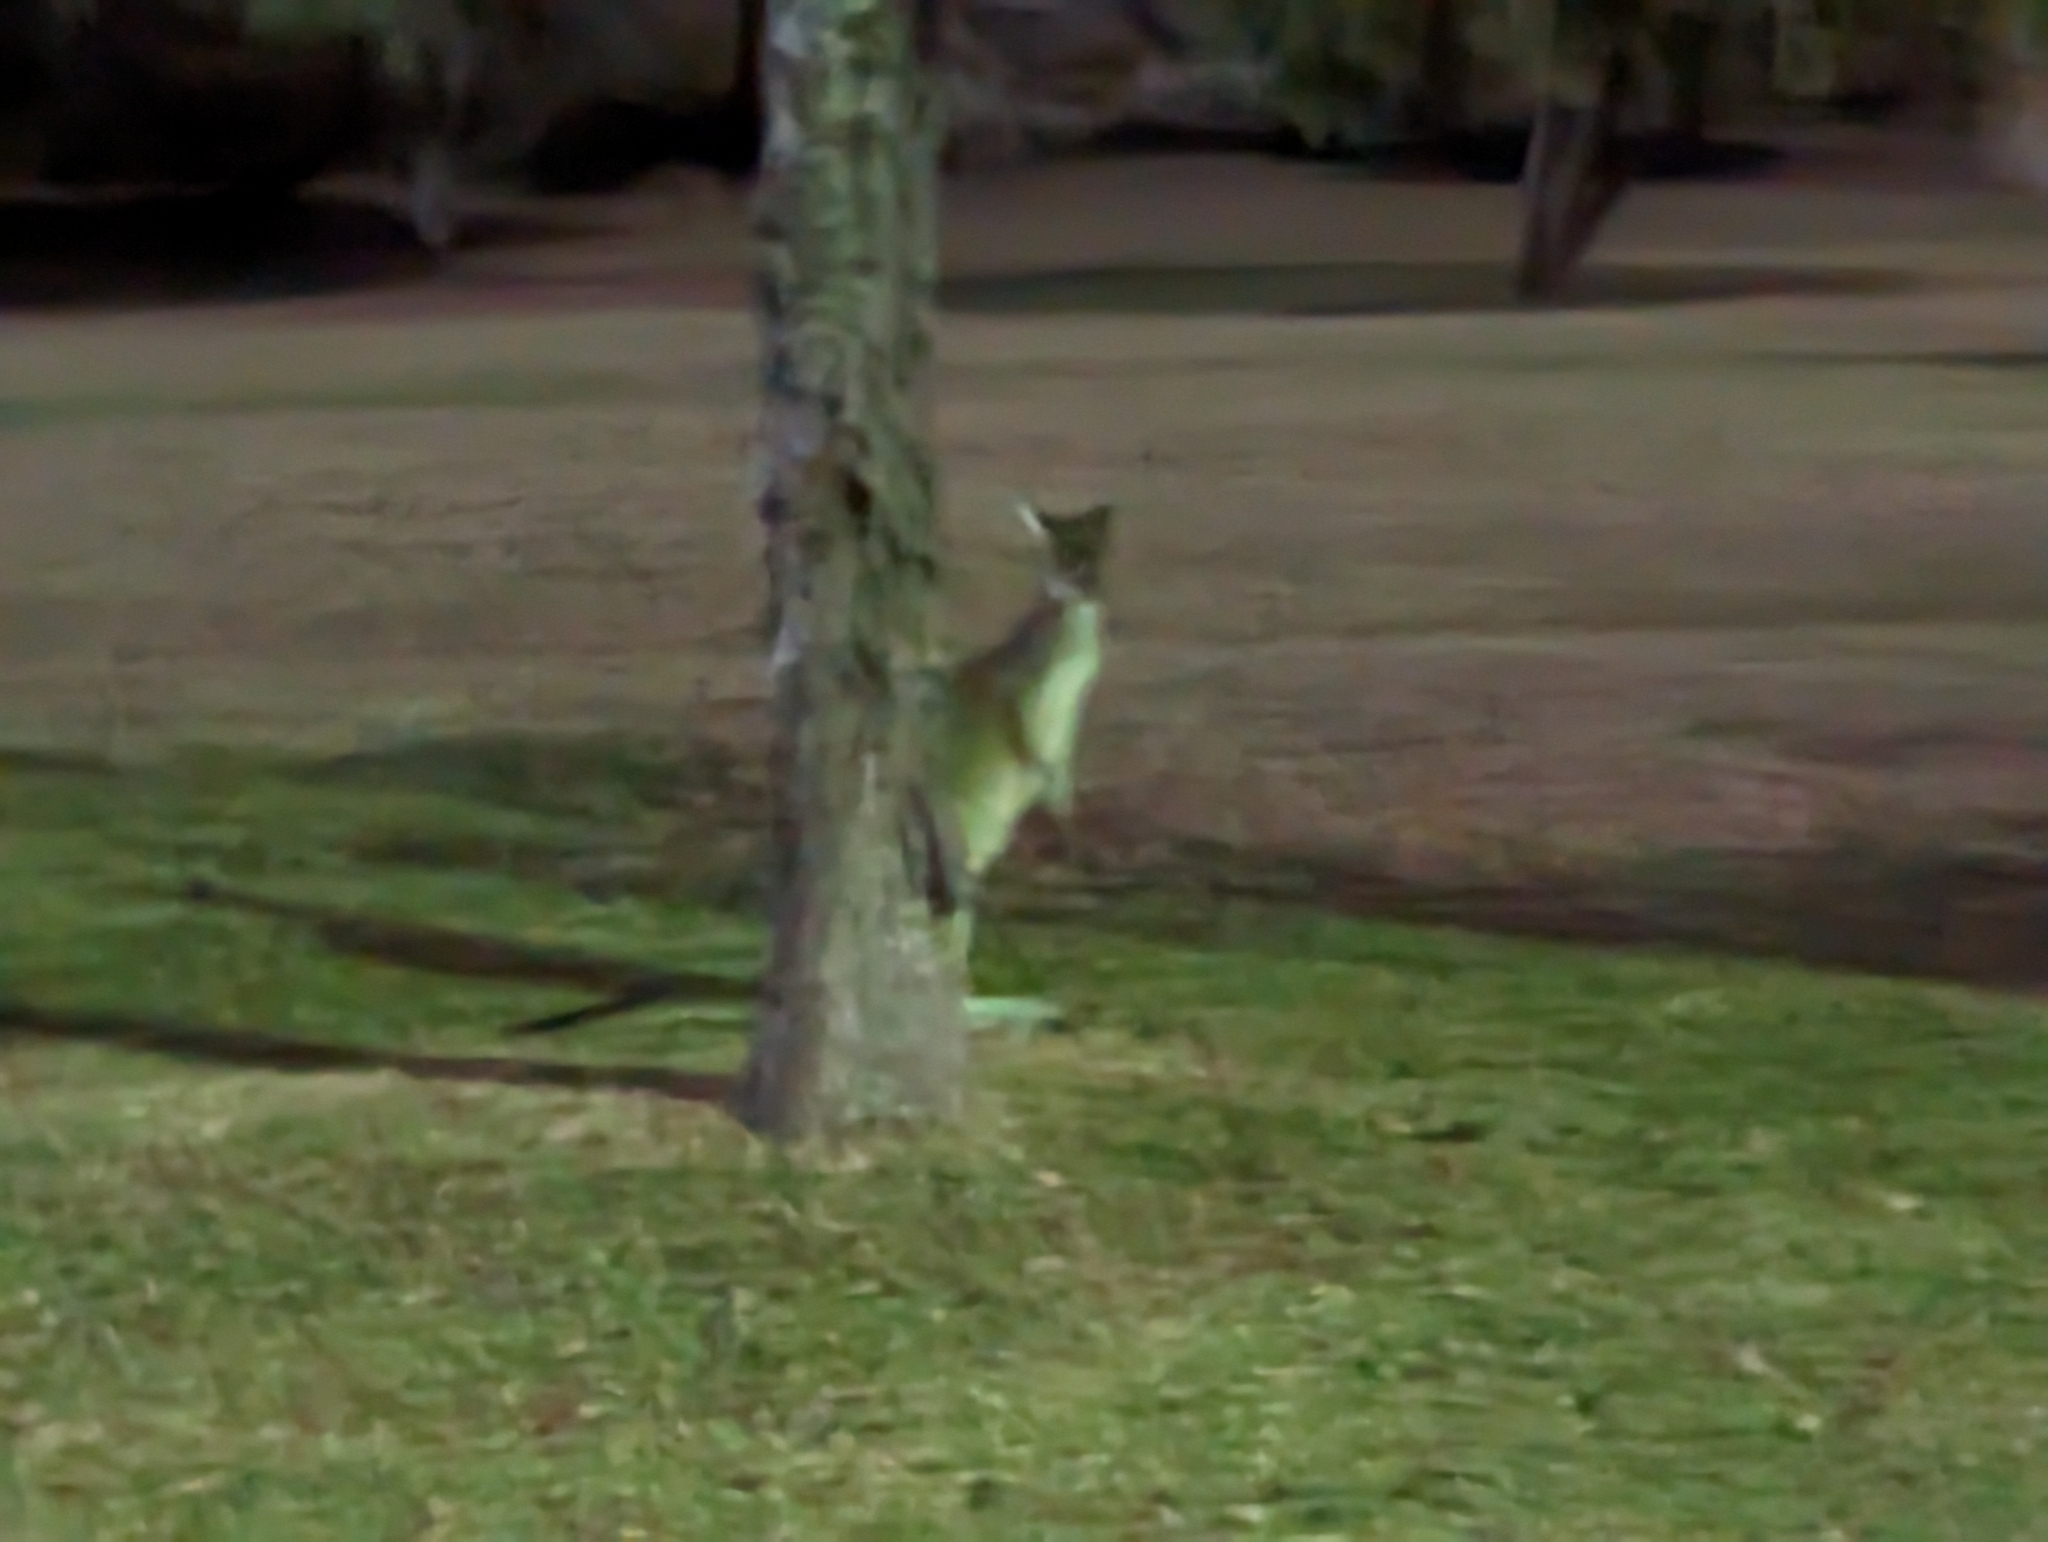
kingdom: Animalia
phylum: Chordata
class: Mammalia
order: Diprotodontia
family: Macropodidae
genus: Macropus
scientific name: Macropus fuliginosus
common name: Western grey kangaroo
